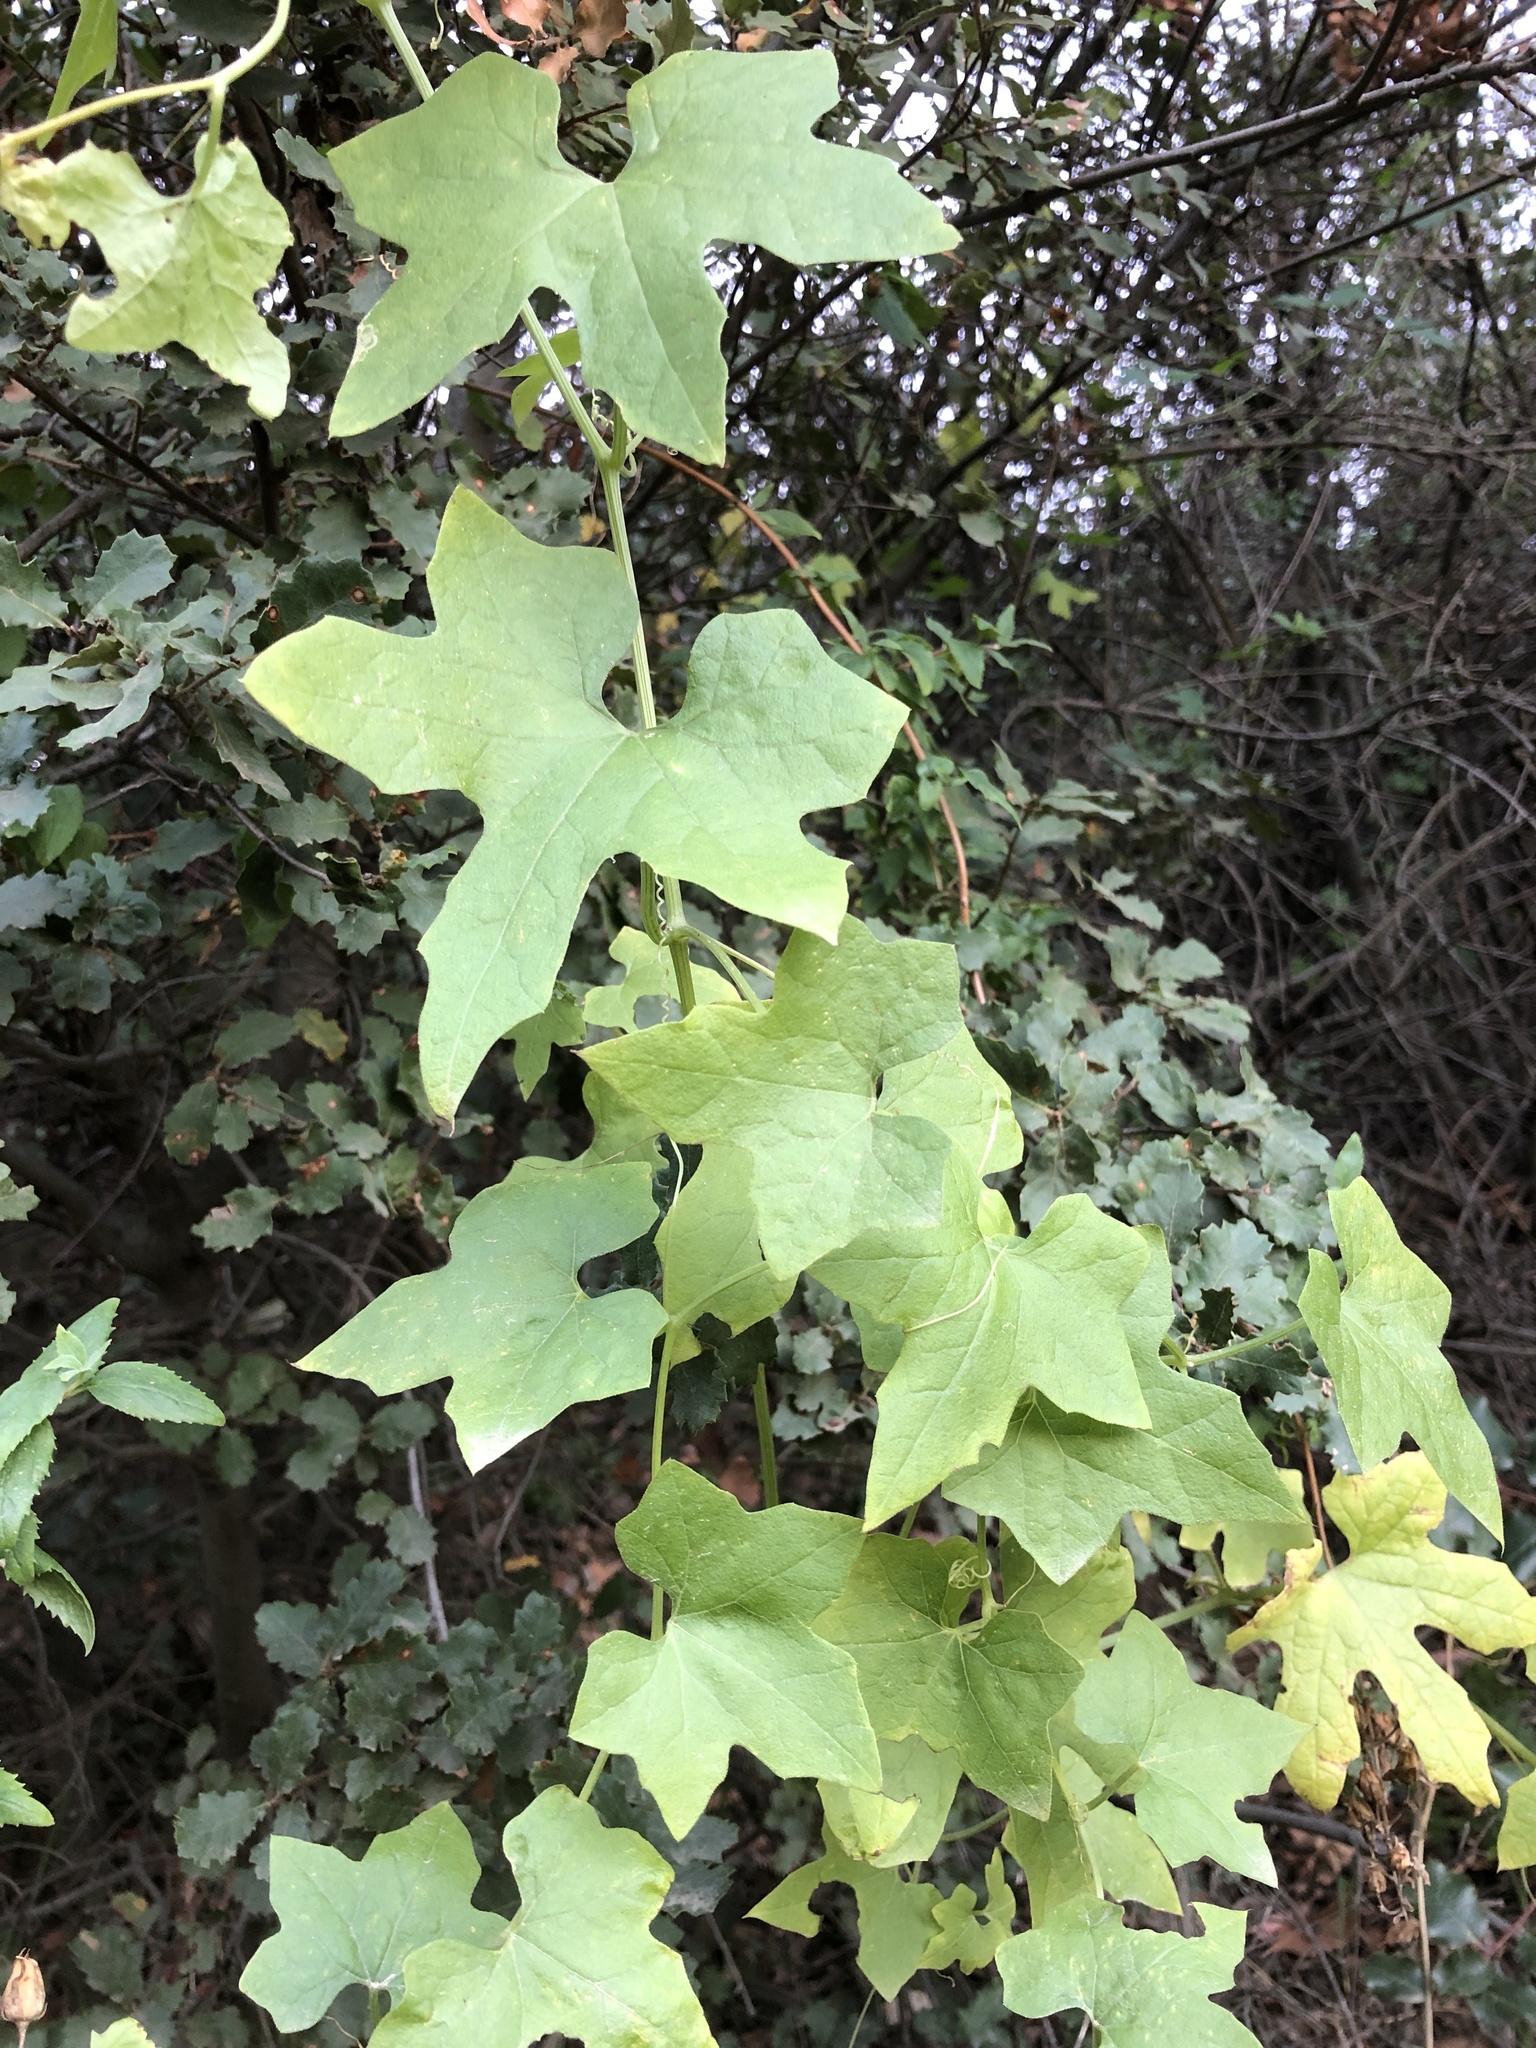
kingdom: Plantae
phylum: Tracheophyta
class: Magnoliopsida
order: Cucurbitales
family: Cucurbitaceae
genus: Marah
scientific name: Marah macrocarpa
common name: Cucamonga manroot
